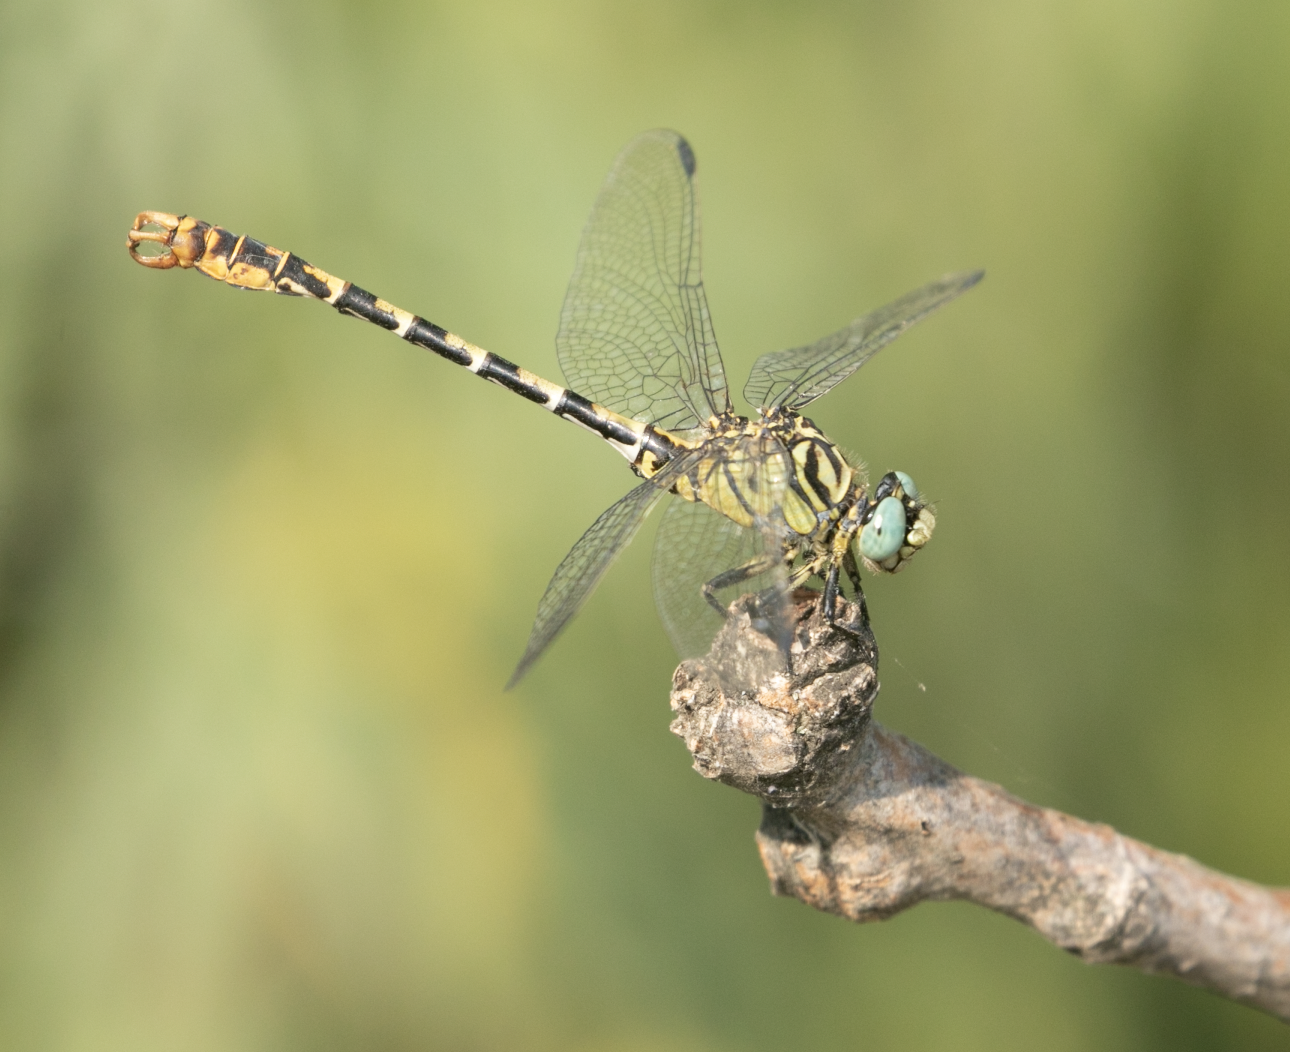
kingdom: Animalia
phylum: Arthropoda
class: Insecta
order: Odonata
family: Gomphidae
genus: Onychogomphus
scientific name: Onychogomphus forcipatus
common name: Small pincertail
